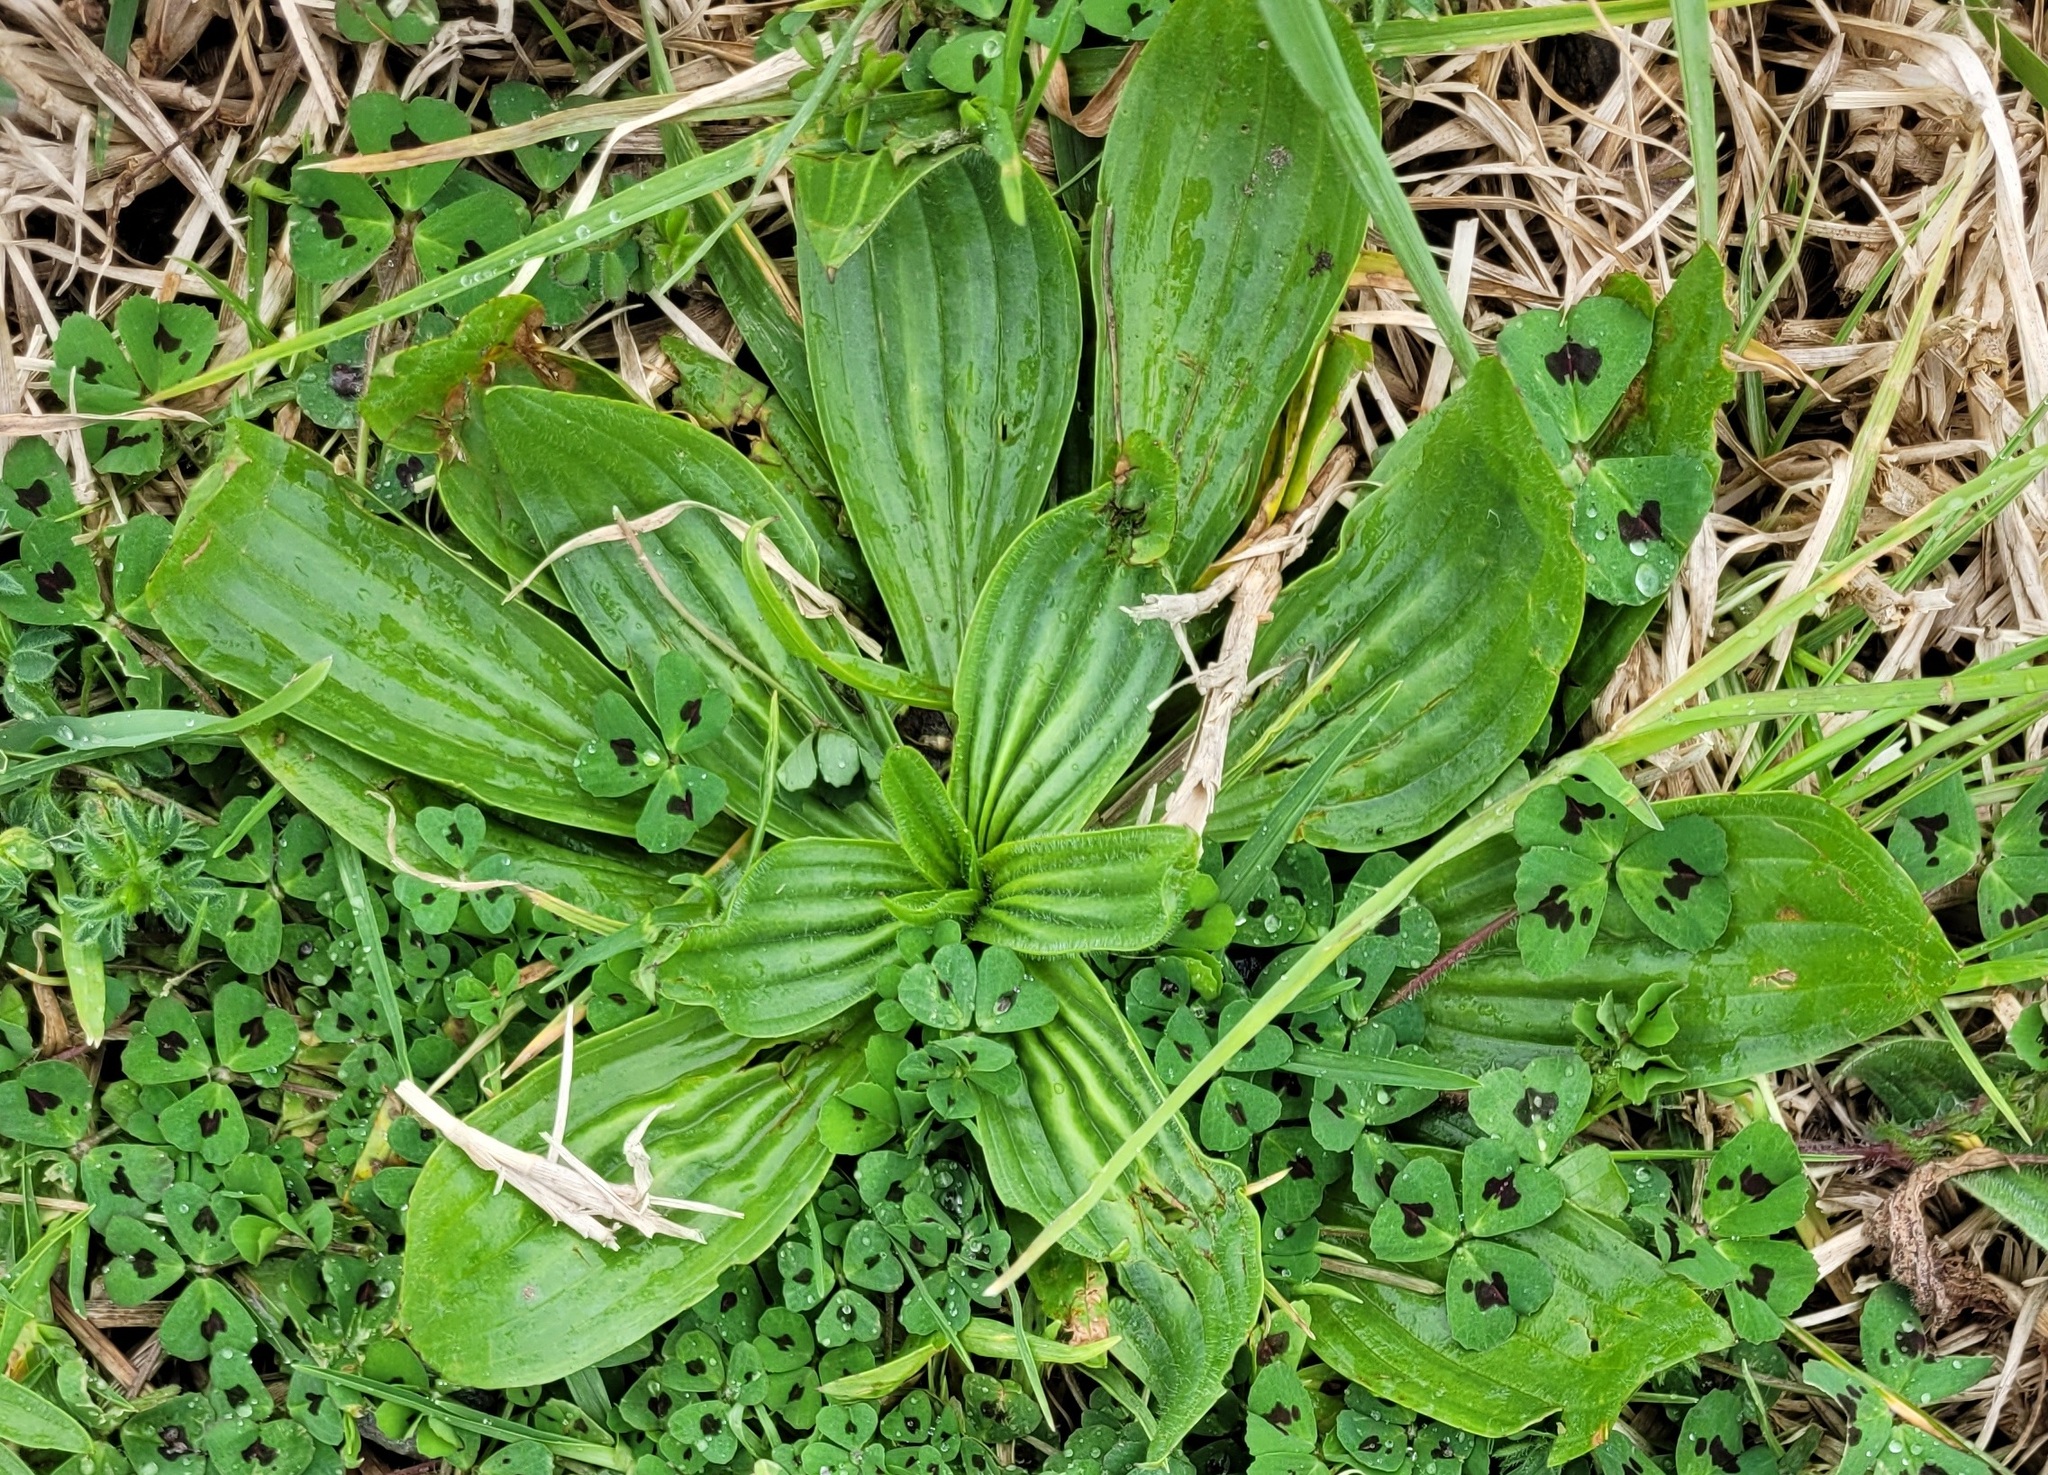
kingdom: Plantae
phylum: Tracheophyta
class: Magnoliopsida
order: Lamiales
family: Plantaginaceae
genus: Plantago
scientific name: Plantago australis
